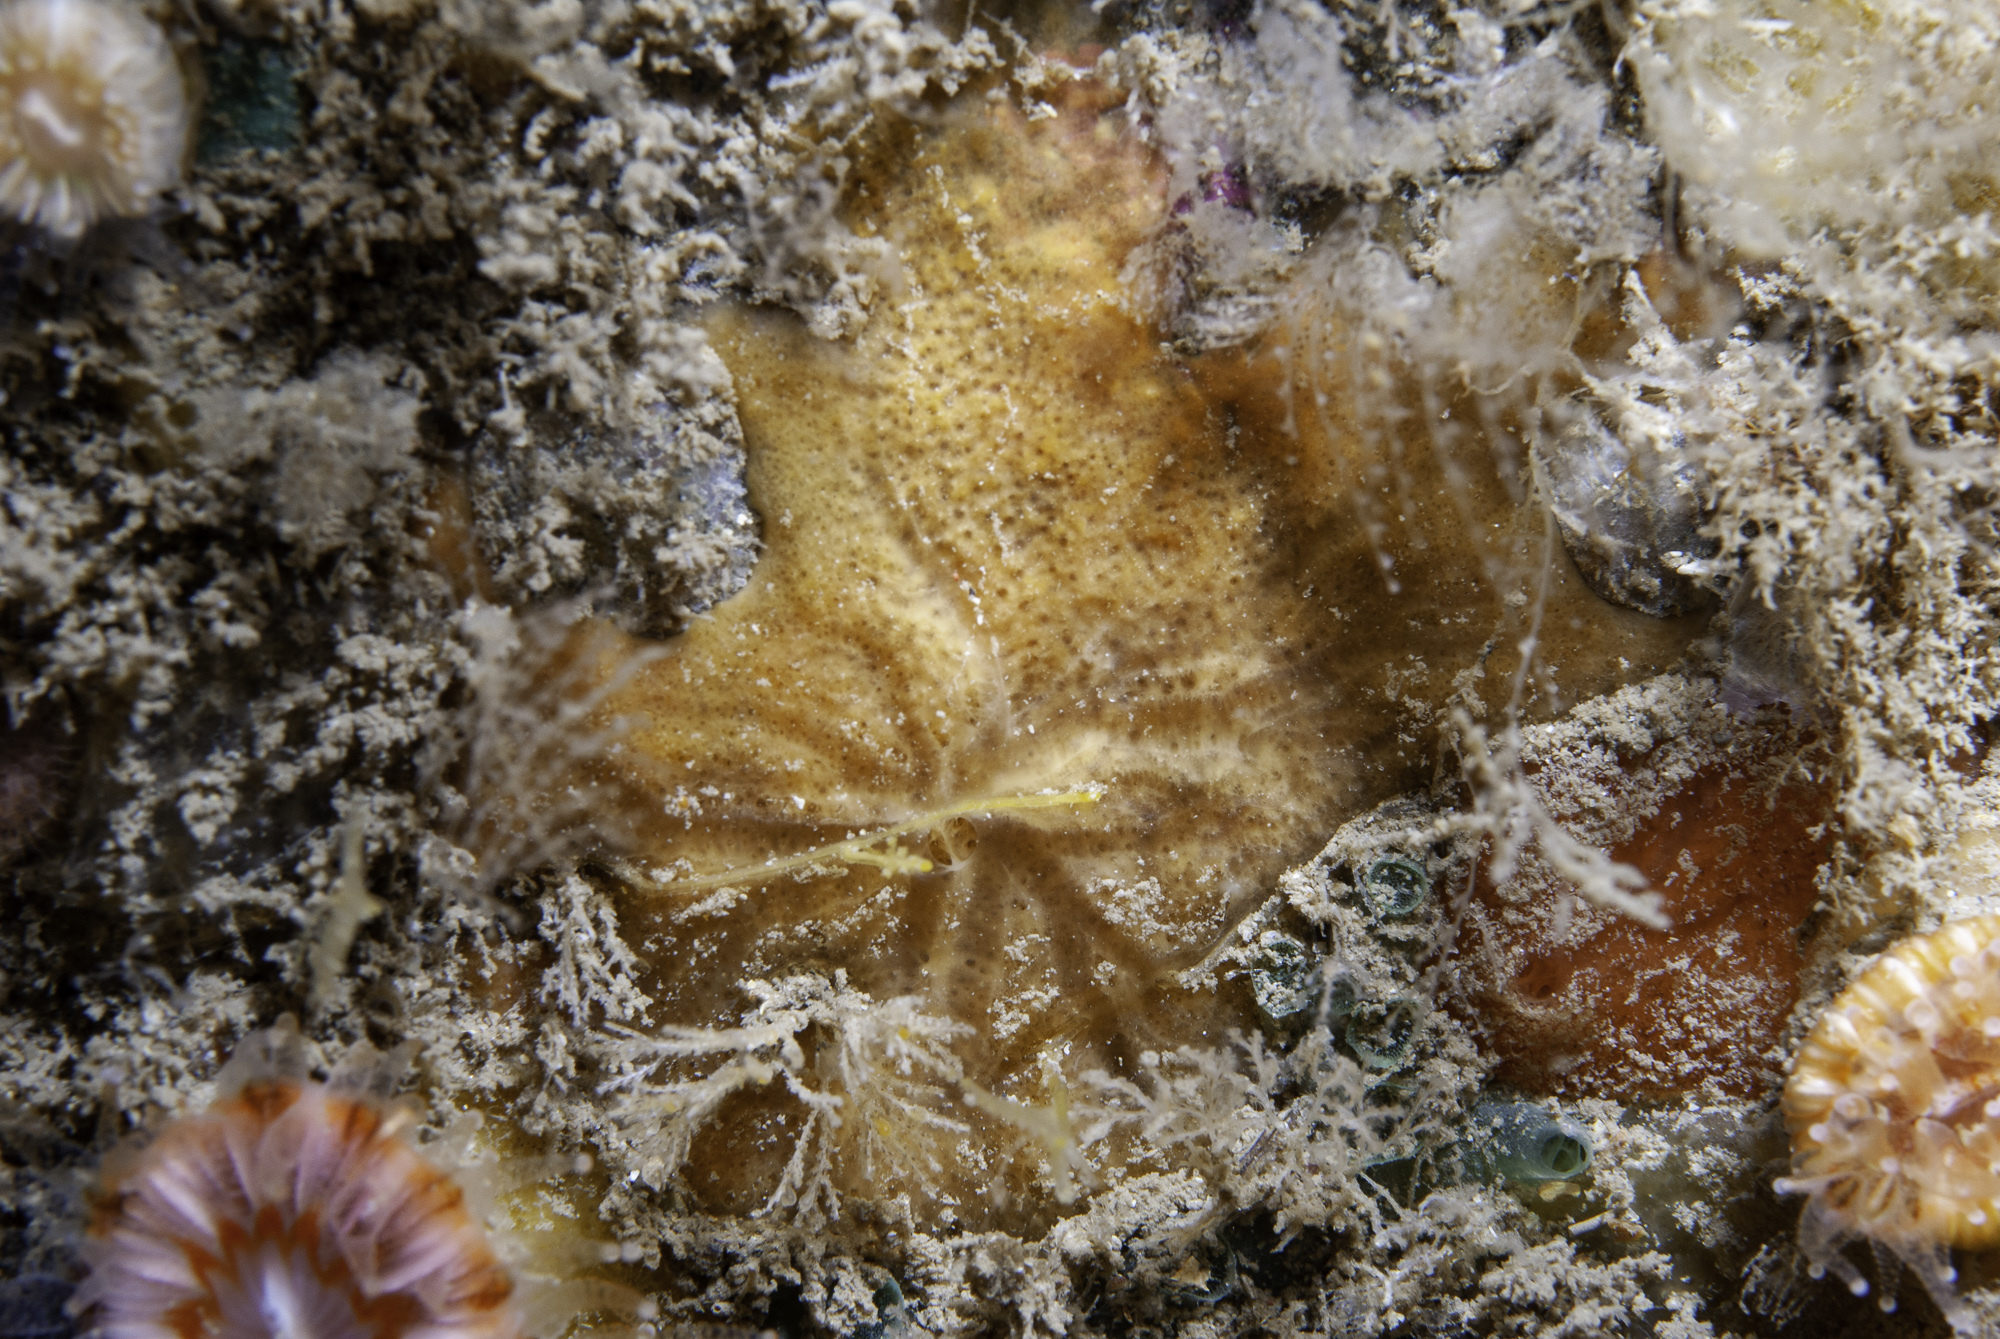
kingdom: Animalia
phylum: Porifera
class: Demospongiae
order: Poecilosclerida
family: Hymedesmiidae
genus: Plocamionida
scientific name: Plocamionida tylotata
